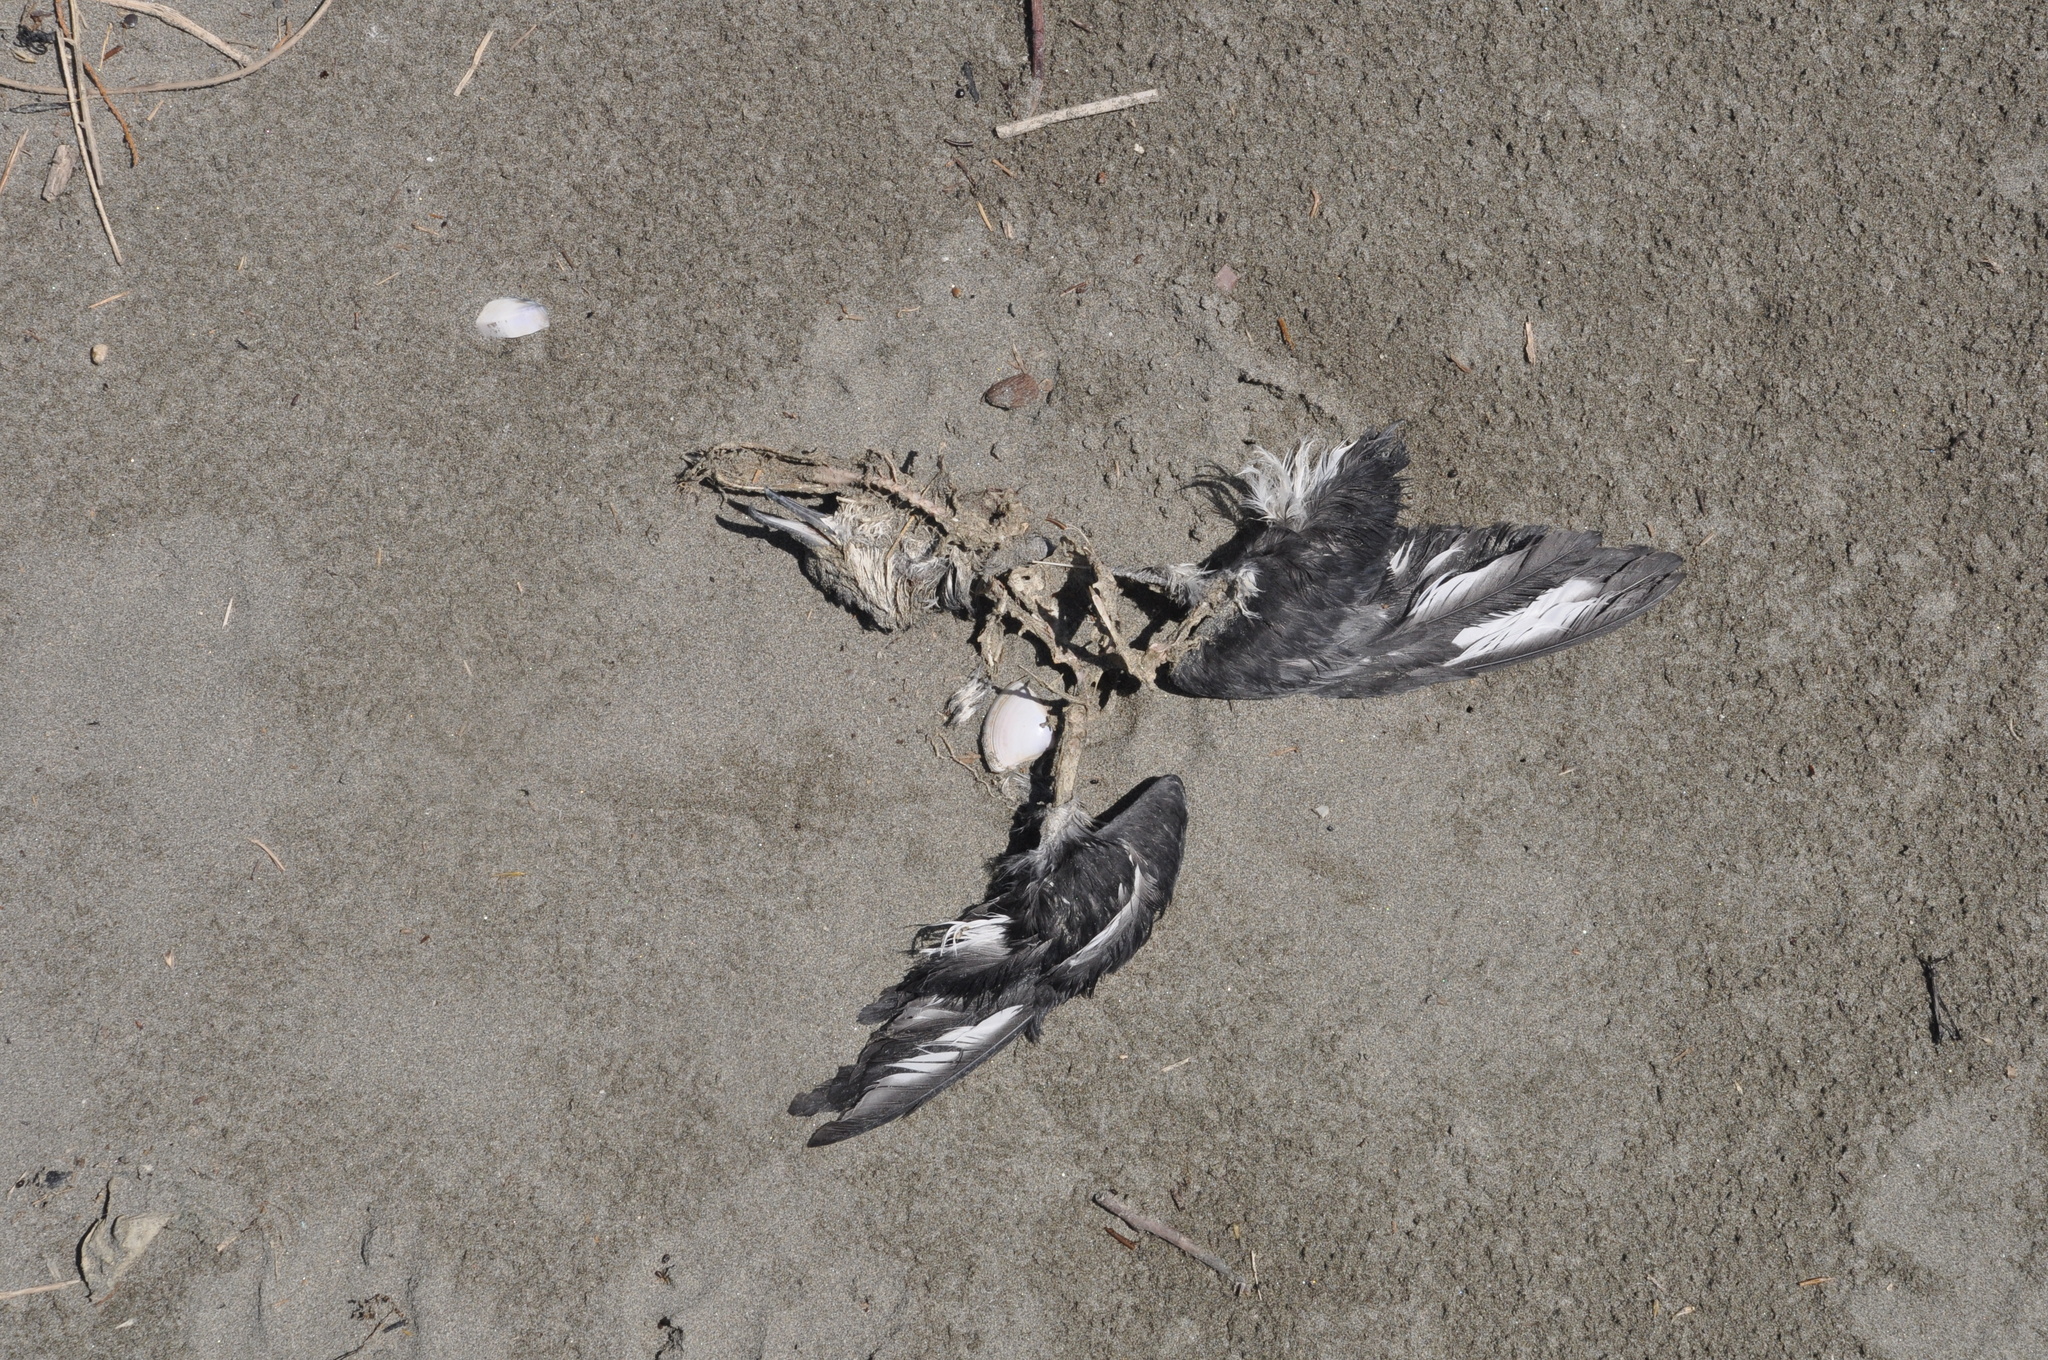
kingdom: Animalia
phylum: Chordata
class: Aves
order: Procellariiformes
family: Hydrobatidae
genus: Pelagodroma
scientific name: Pelagodroma marina
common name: White-faced storm-petrel
